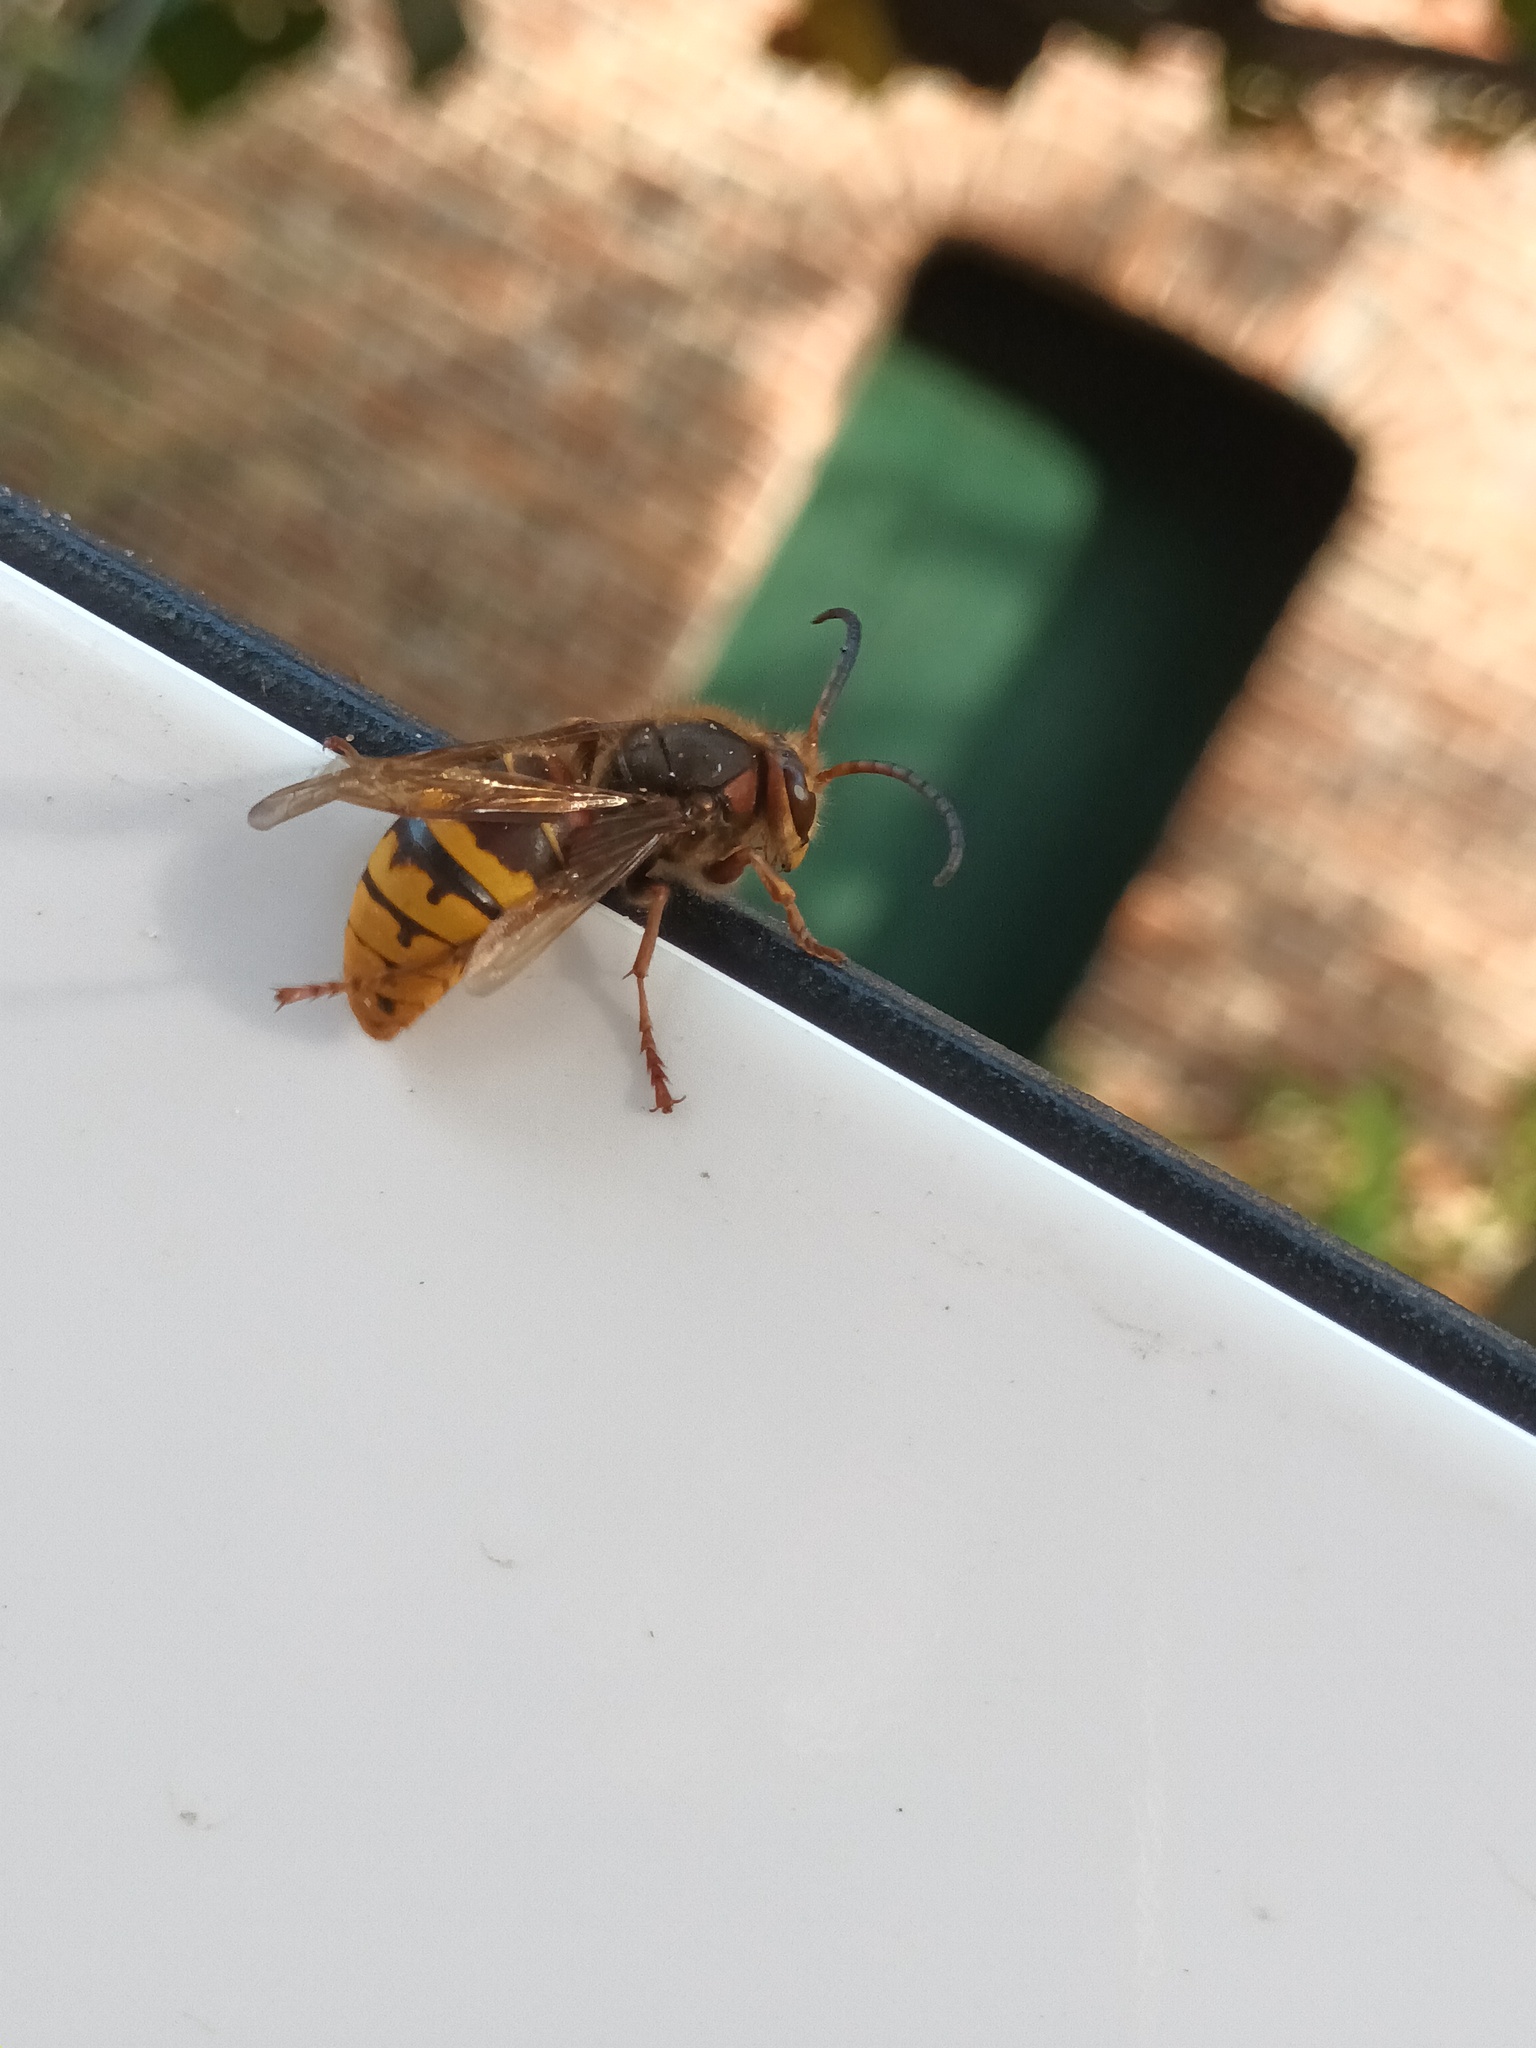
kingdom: Animalia
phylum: Arthropoda
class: Insecta
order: Hymenoptera
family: Vespidae
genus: Vespa
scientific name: Vespa crabro
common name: Hornet
